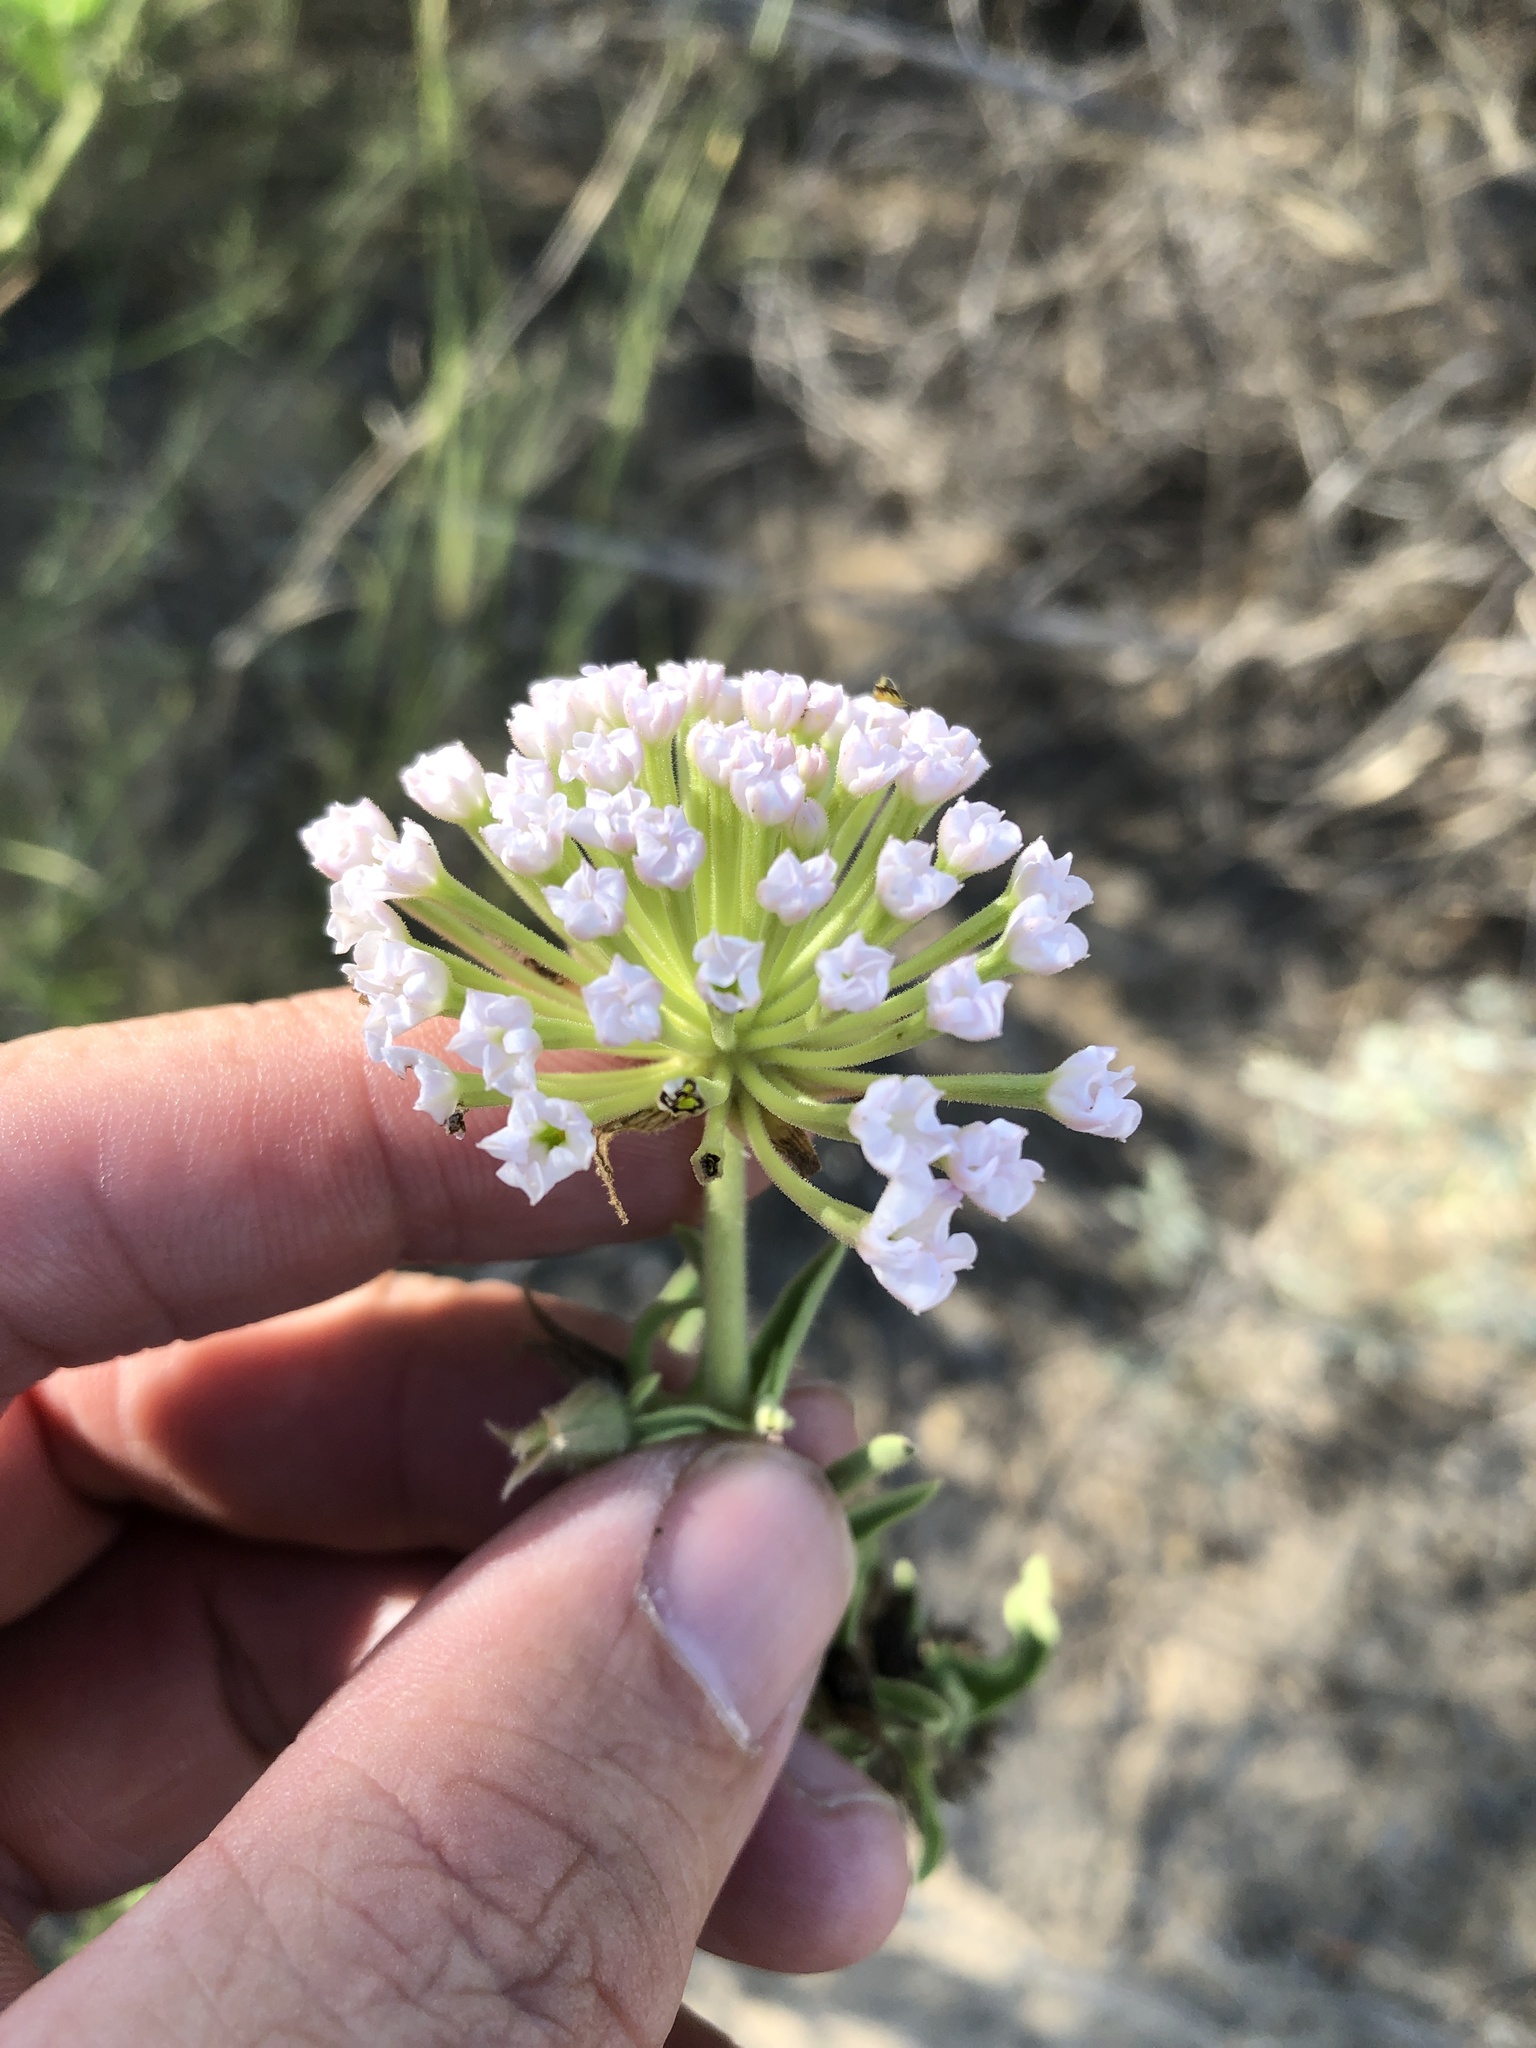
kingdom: Plantae
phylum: Tracheophyta
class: Magnoliopsida
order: Caryophyllales
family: Nyctaginaceae
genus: Abronia
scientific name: Abronia fragrans
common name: Fragrant sand-verbena
